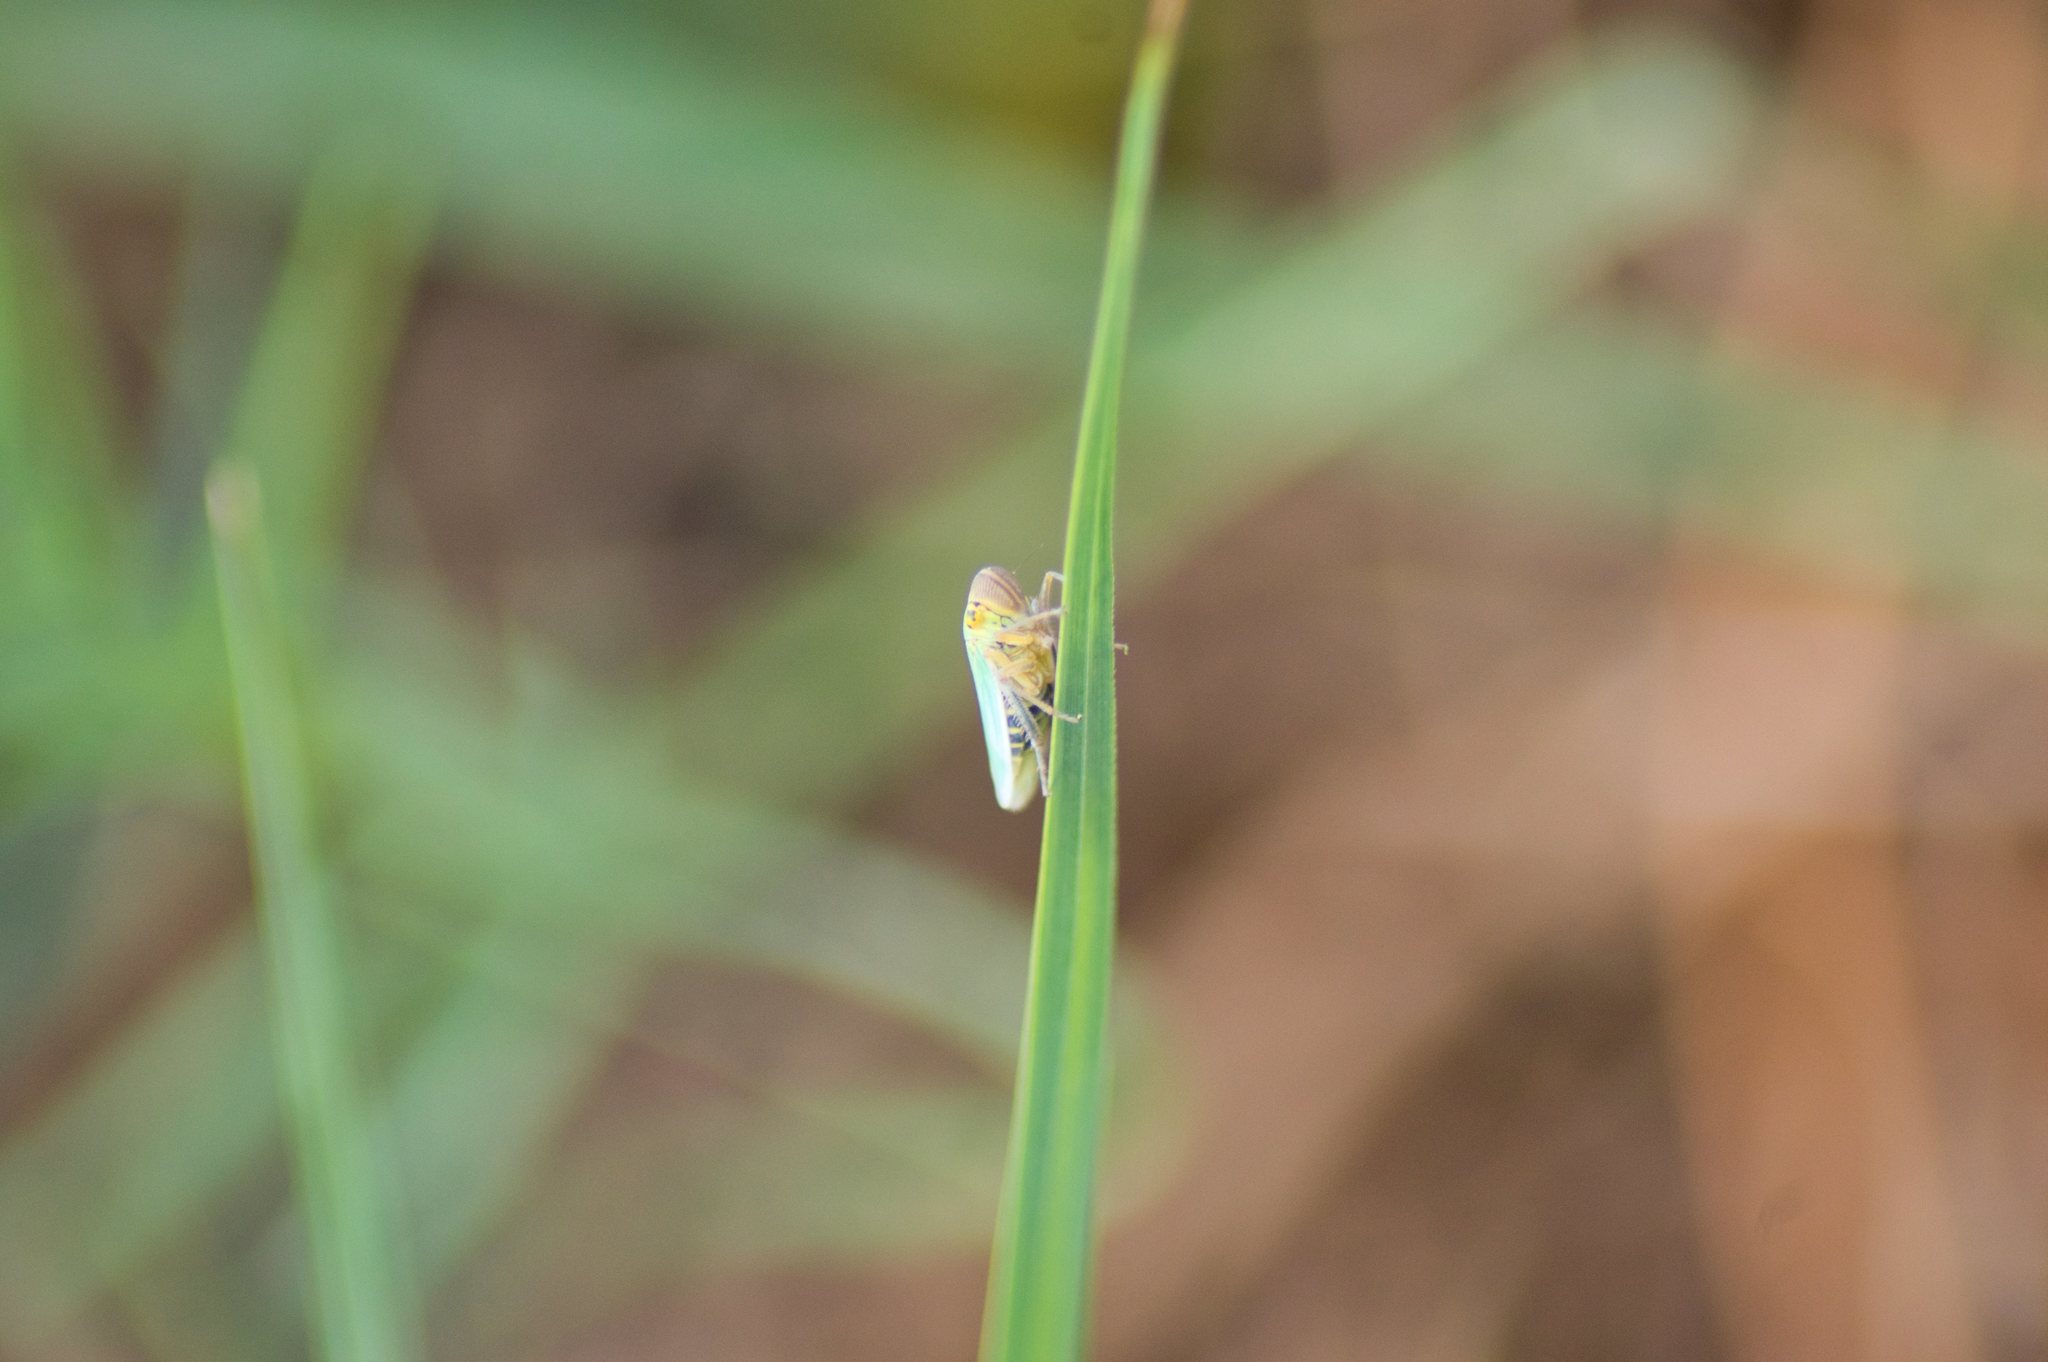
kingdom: Animalia
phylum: Arthropoda
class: Insecta
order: Hemiptera
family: Cicadellidae
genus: Cicadella
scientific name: Cicadella viridis
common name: Leafhopper
